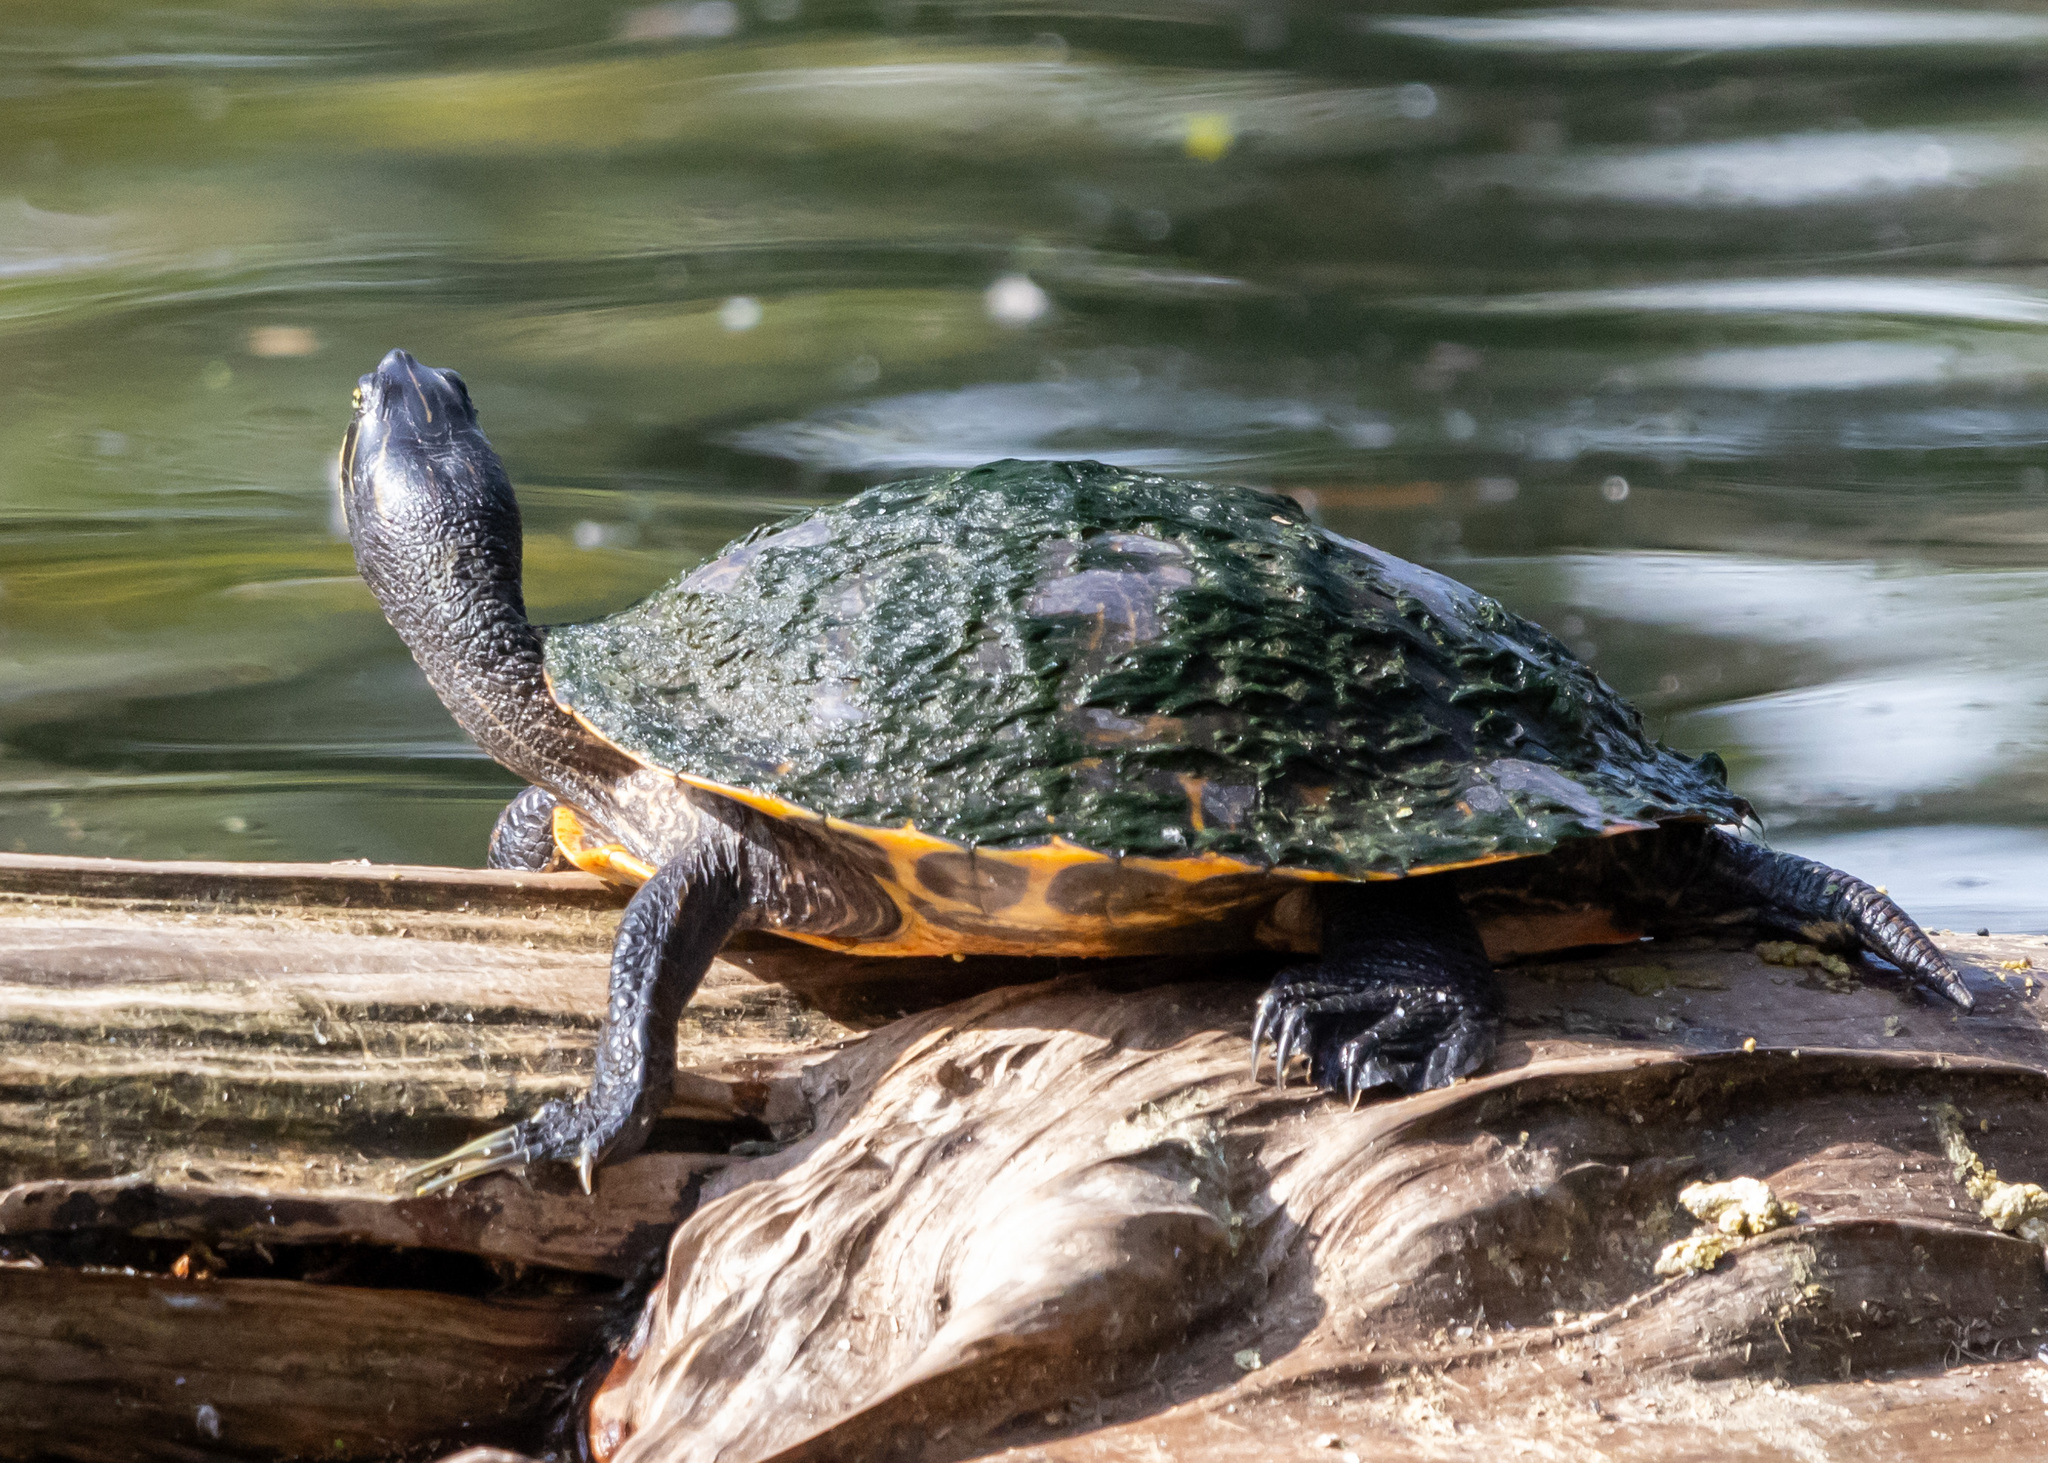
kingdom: Animalia
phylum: Chordata
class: Testudines
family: Emydidae
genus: Pseudemys
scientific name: Pseudemys concinna
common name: Eastern river cooter
